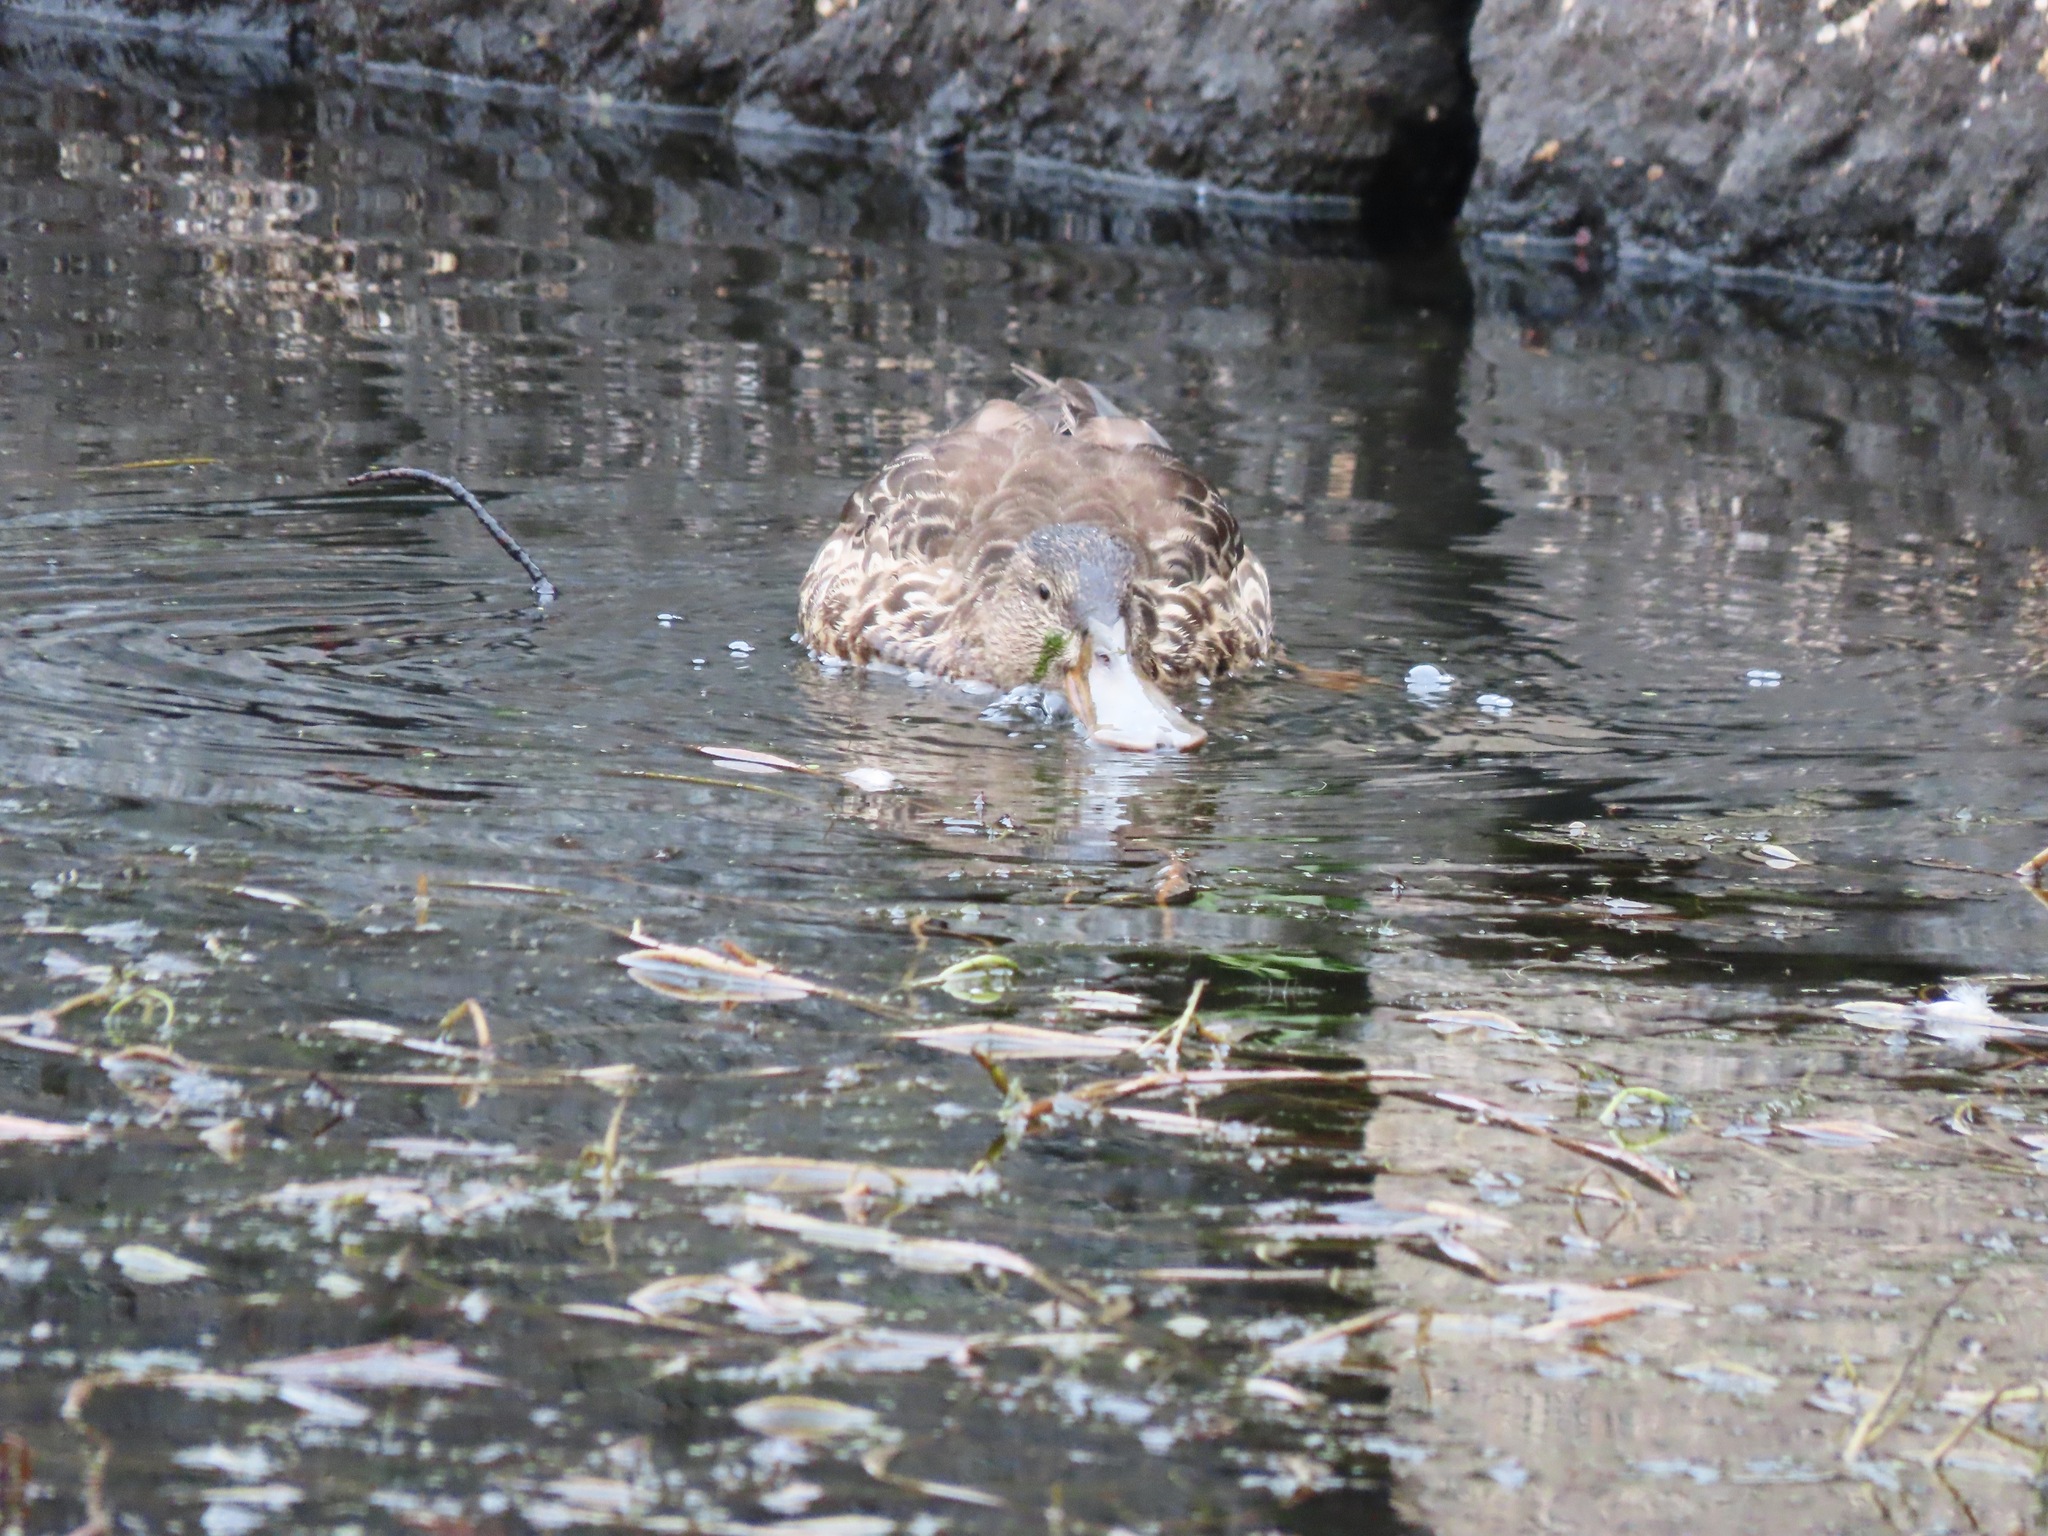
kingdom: Animalia
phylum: Chordata
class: Aves
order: Anseriformes
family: Anatidae
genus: Spatula
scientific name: Spatula clypeata
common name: Northern shoveler
